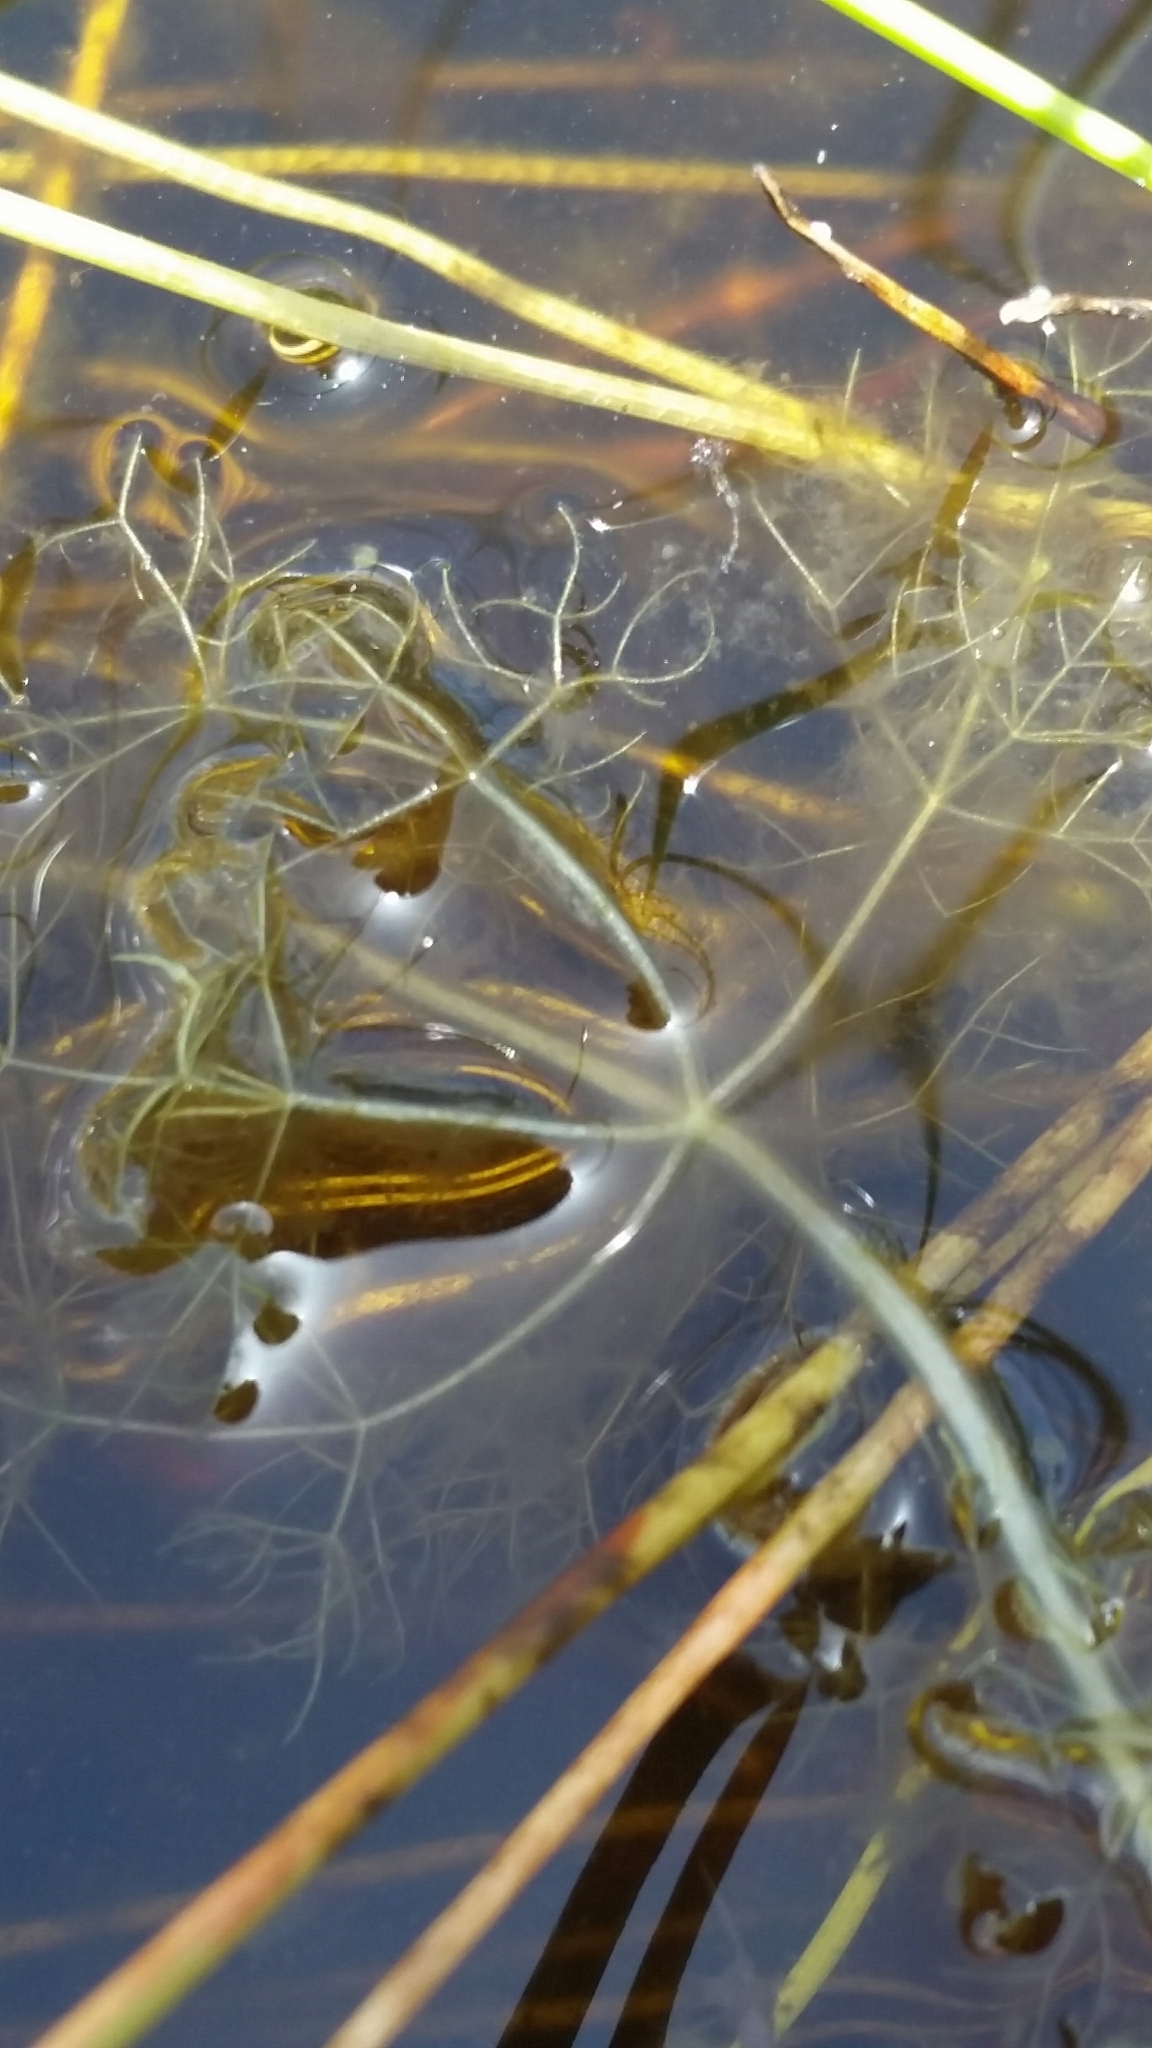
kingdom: Plantae
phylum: Tracheophyta
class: Magnoliopsida
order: Lamiales
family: Lentibulariaceae
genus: Utricularia
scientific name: Utricularia purpurea
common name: Eastern purple bladderwort
